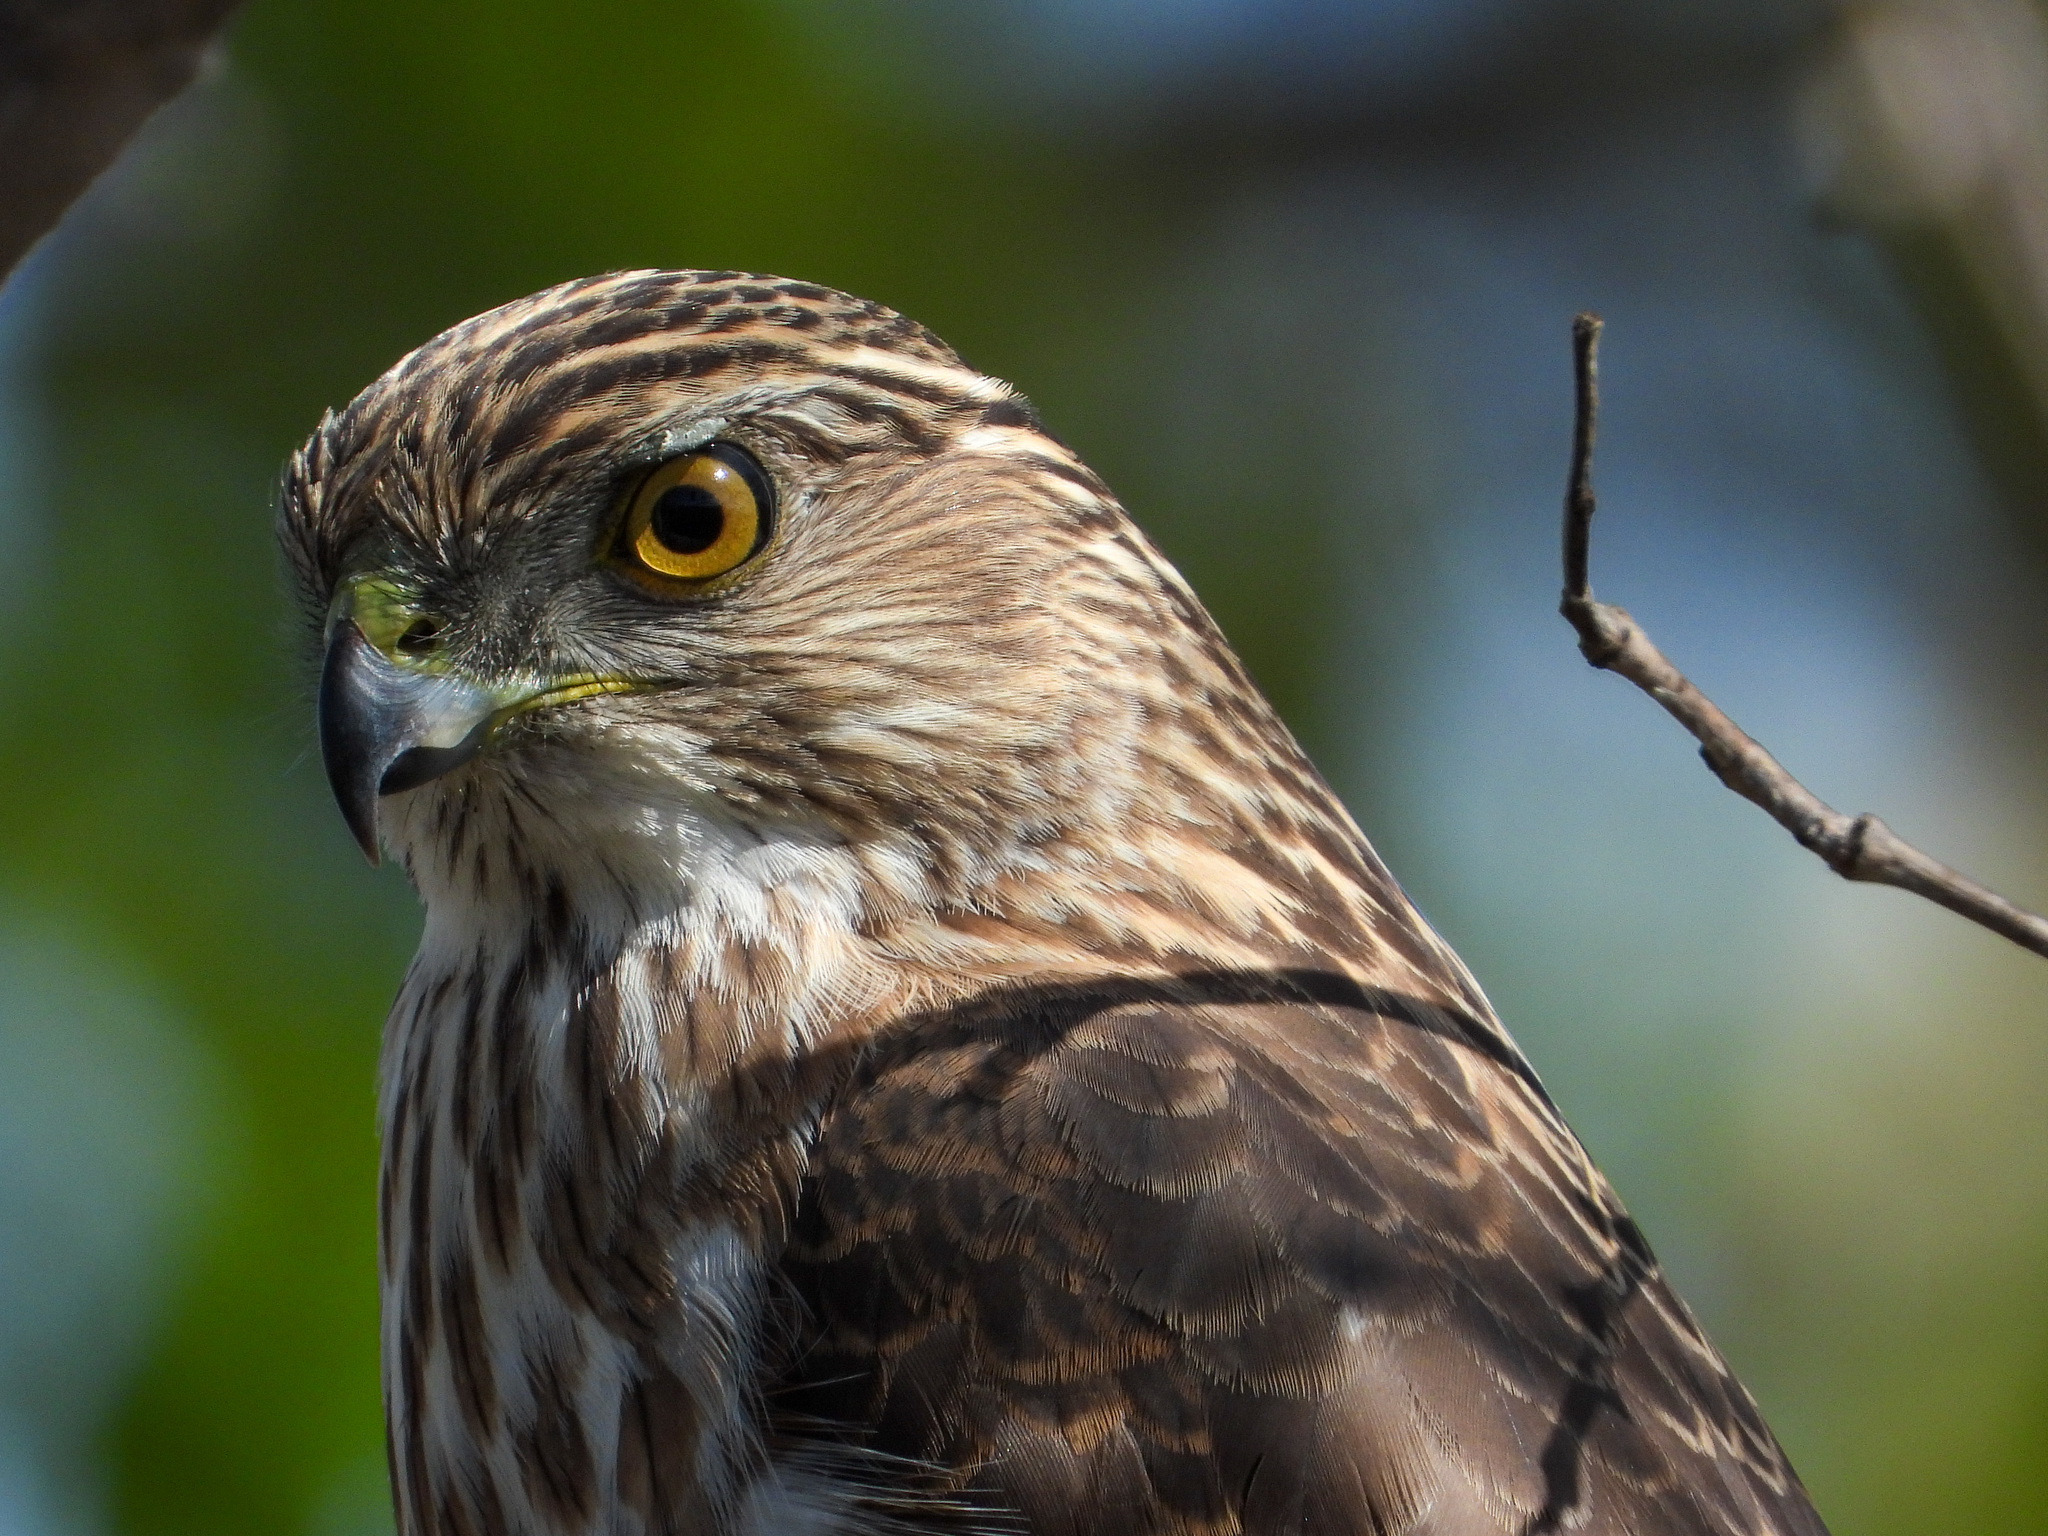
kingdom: Animalia
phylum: Chordata
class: Aves
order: Accipitriformes
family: Accipitridae
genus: Accipiter
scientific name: Accipiter cooperii
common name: Cooper's hawk
